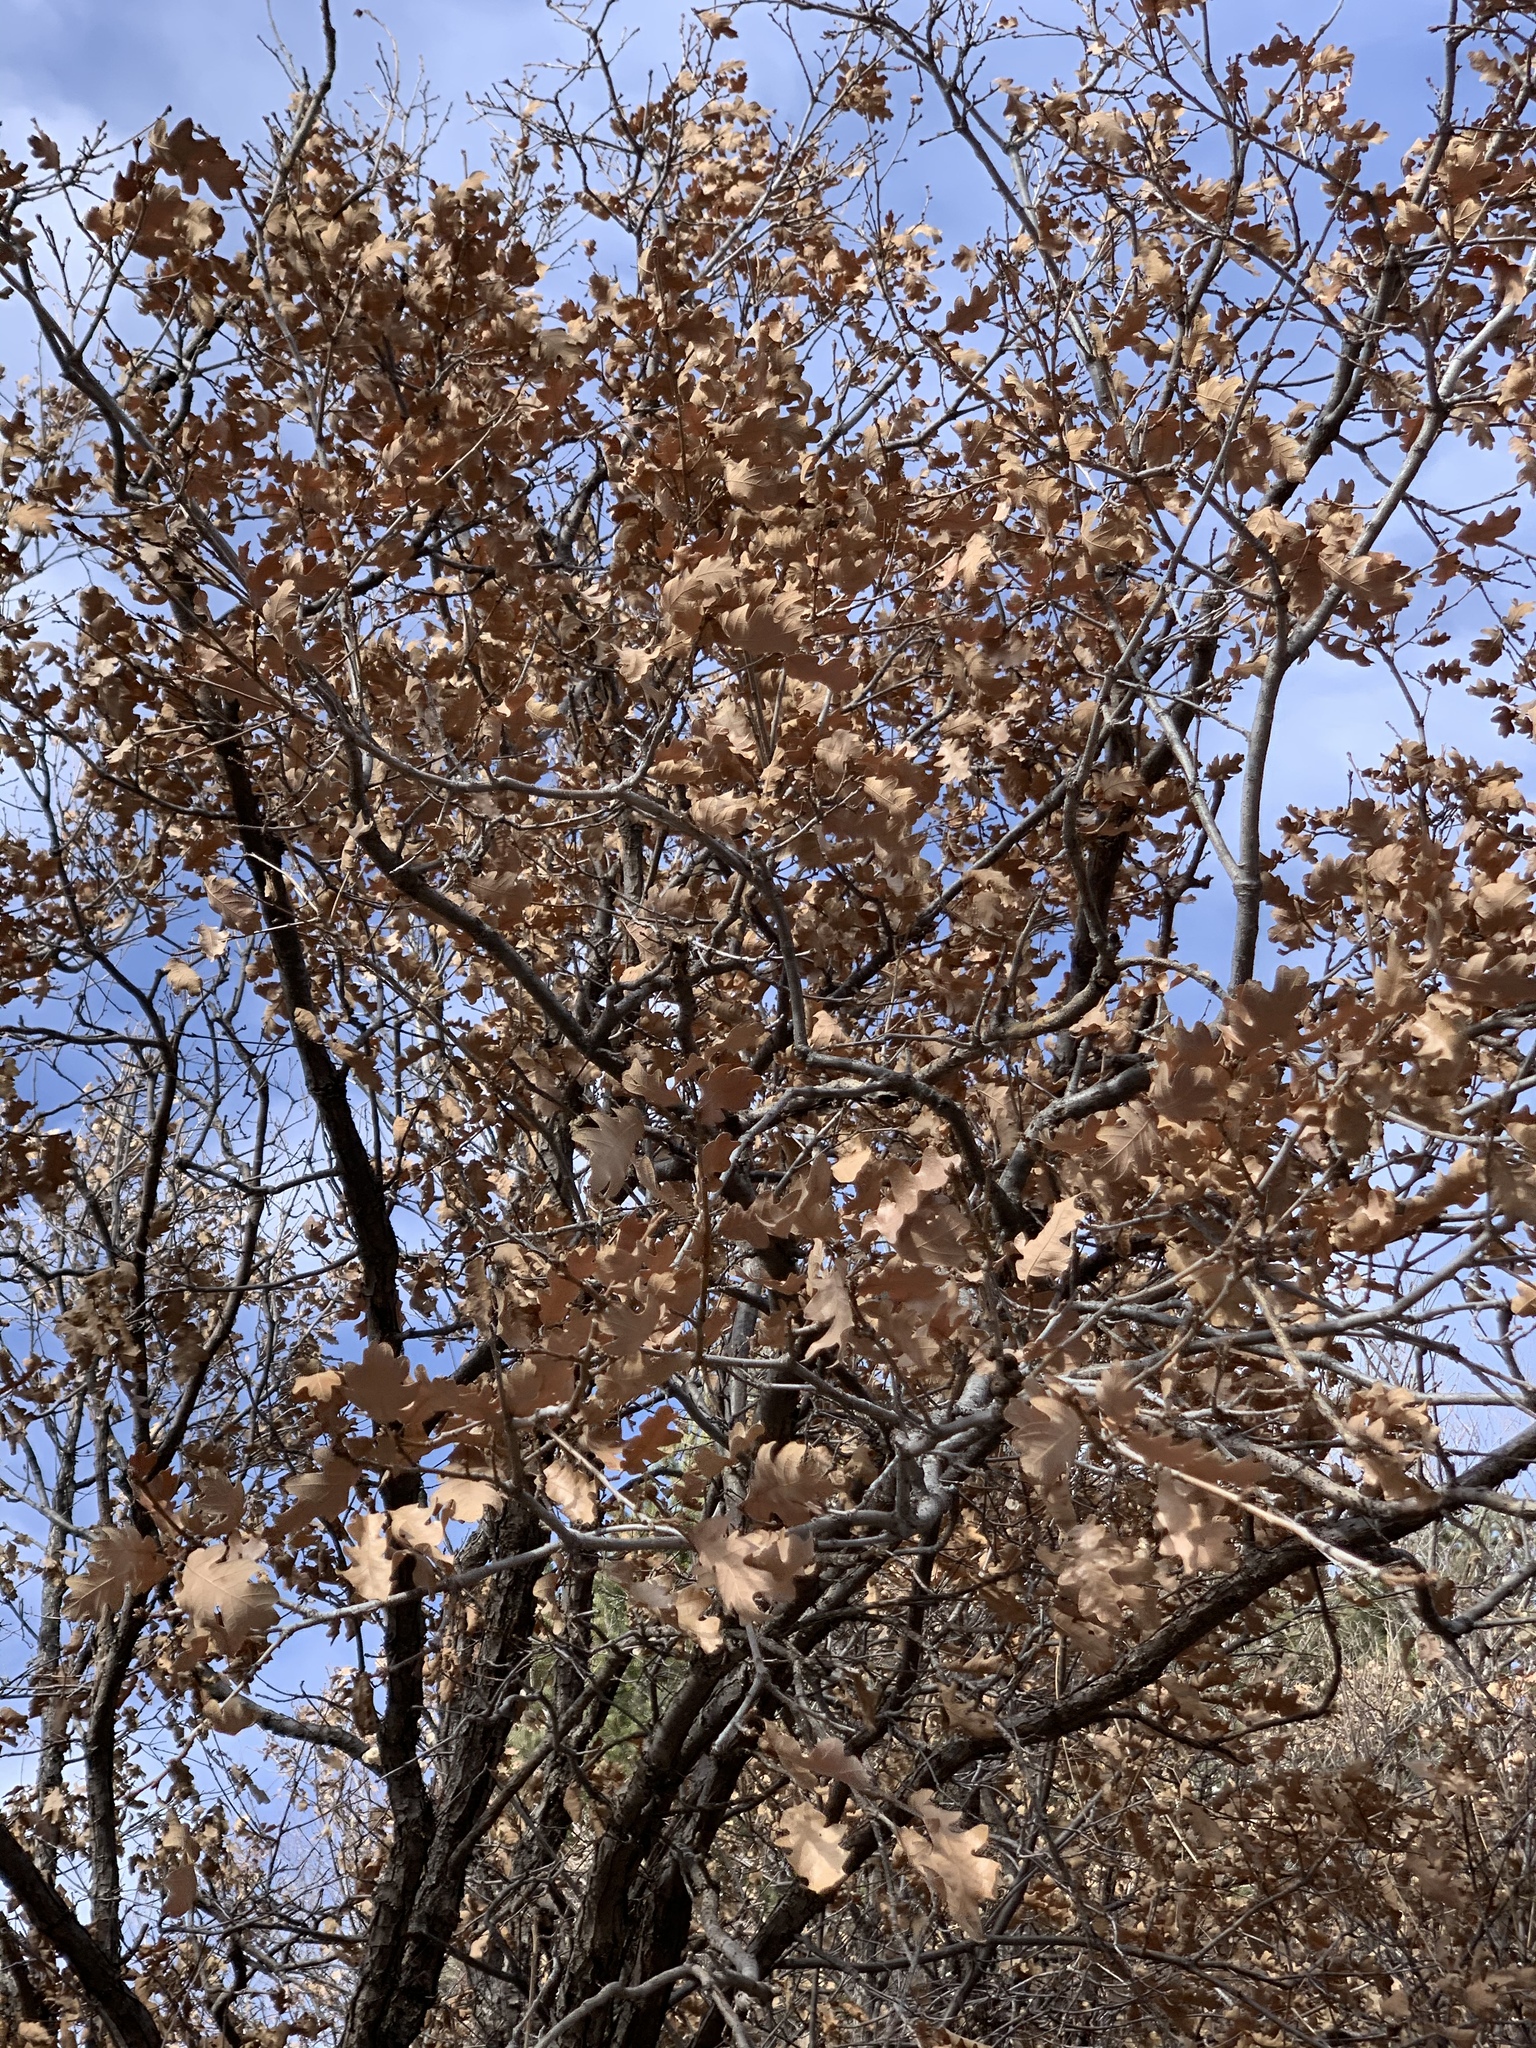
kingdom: Plantae
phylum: Tracheophyta
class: Magnoliopsida
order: Fagales
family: Fagaceae
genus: Quercus
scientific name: Quercus gambelii
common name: Gambel oak
